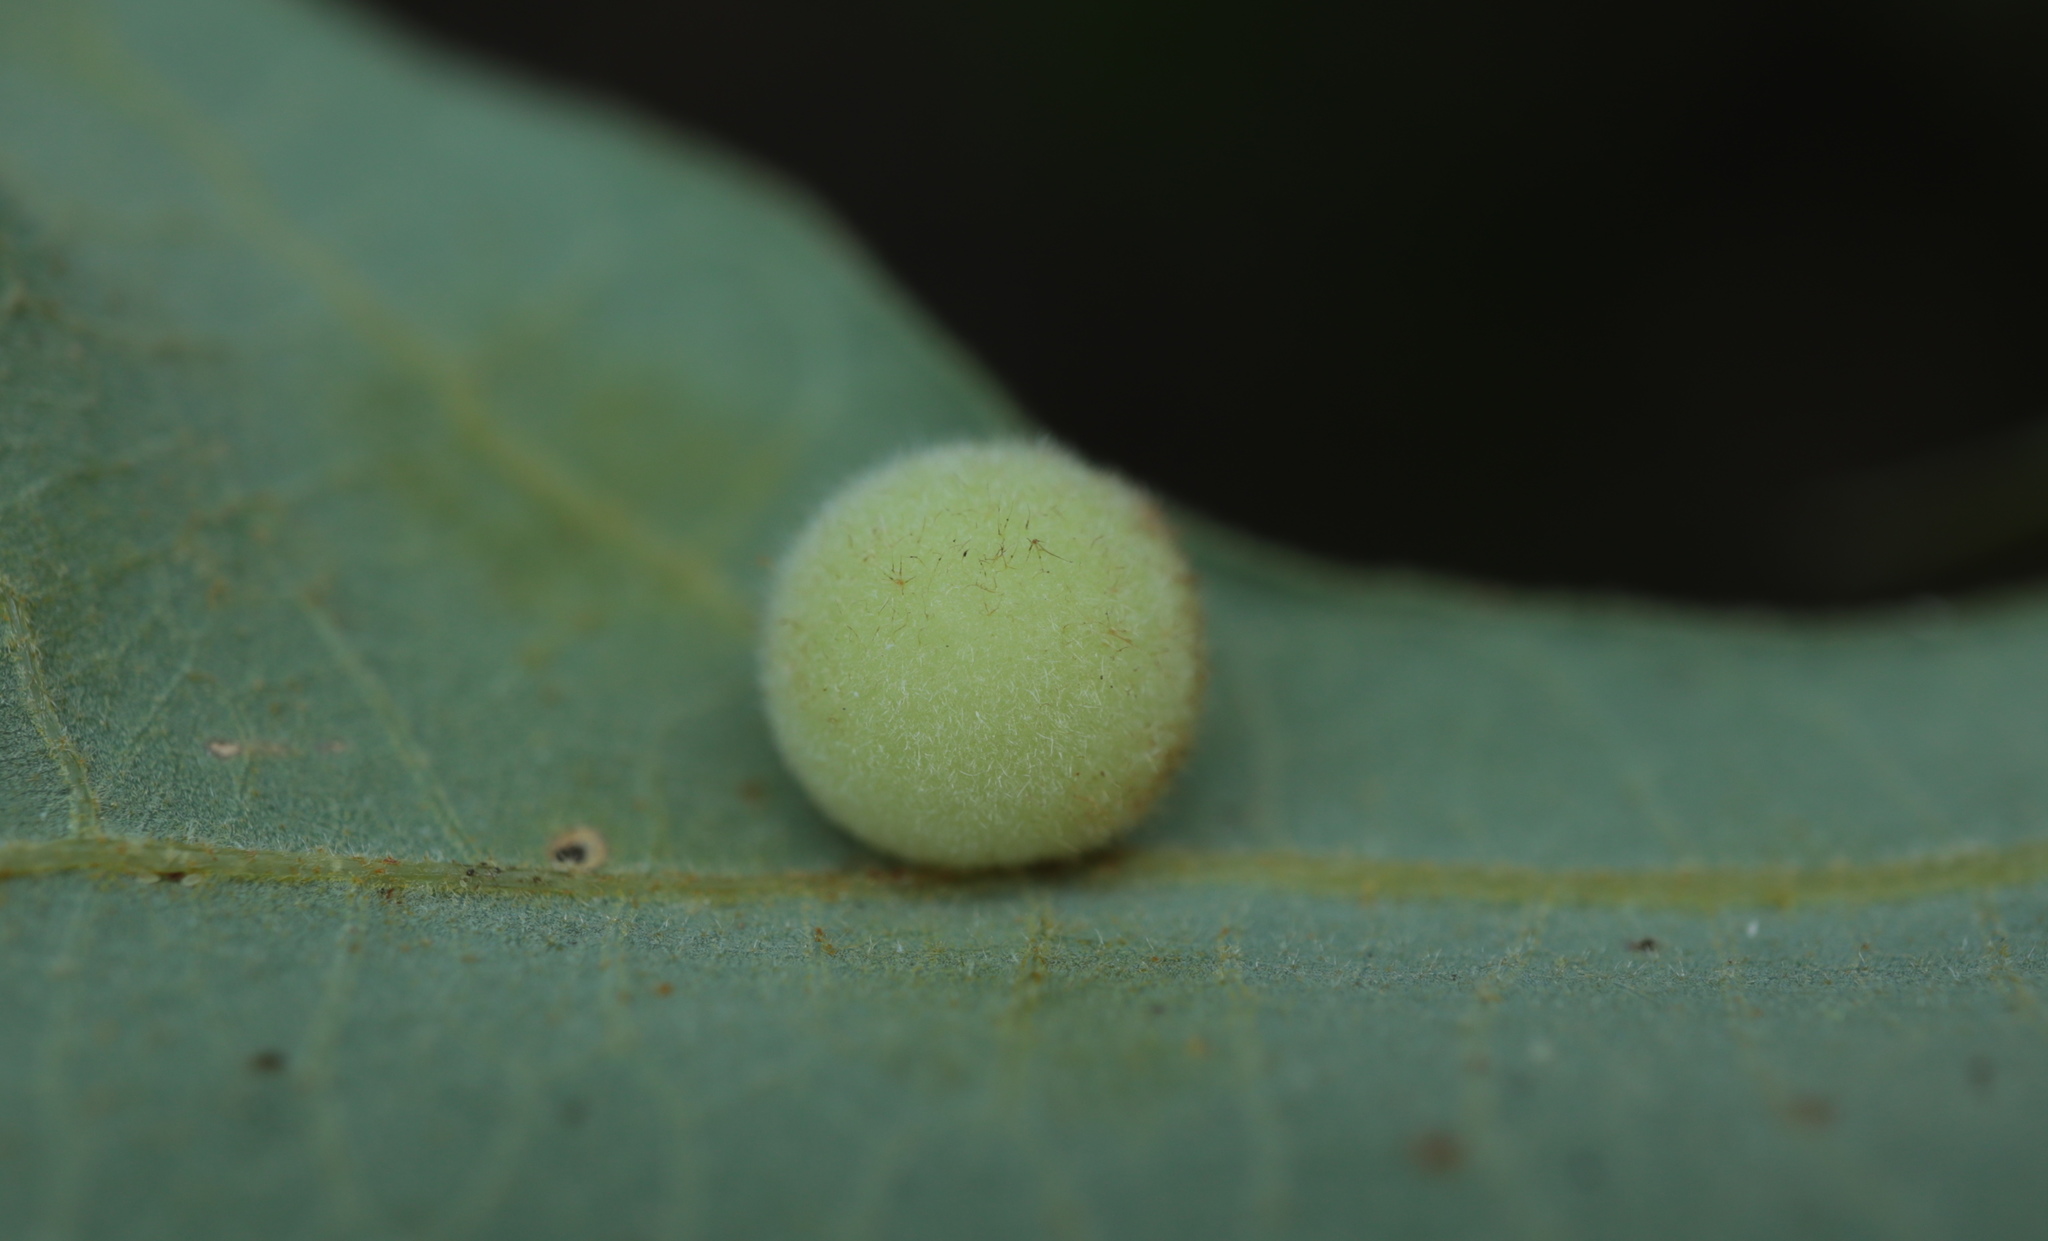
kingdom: Animalia
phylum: Arthropoda
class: Insecta
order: Hymenoptera
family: Cynipidae
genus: Atrusca
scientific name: Atrusca
